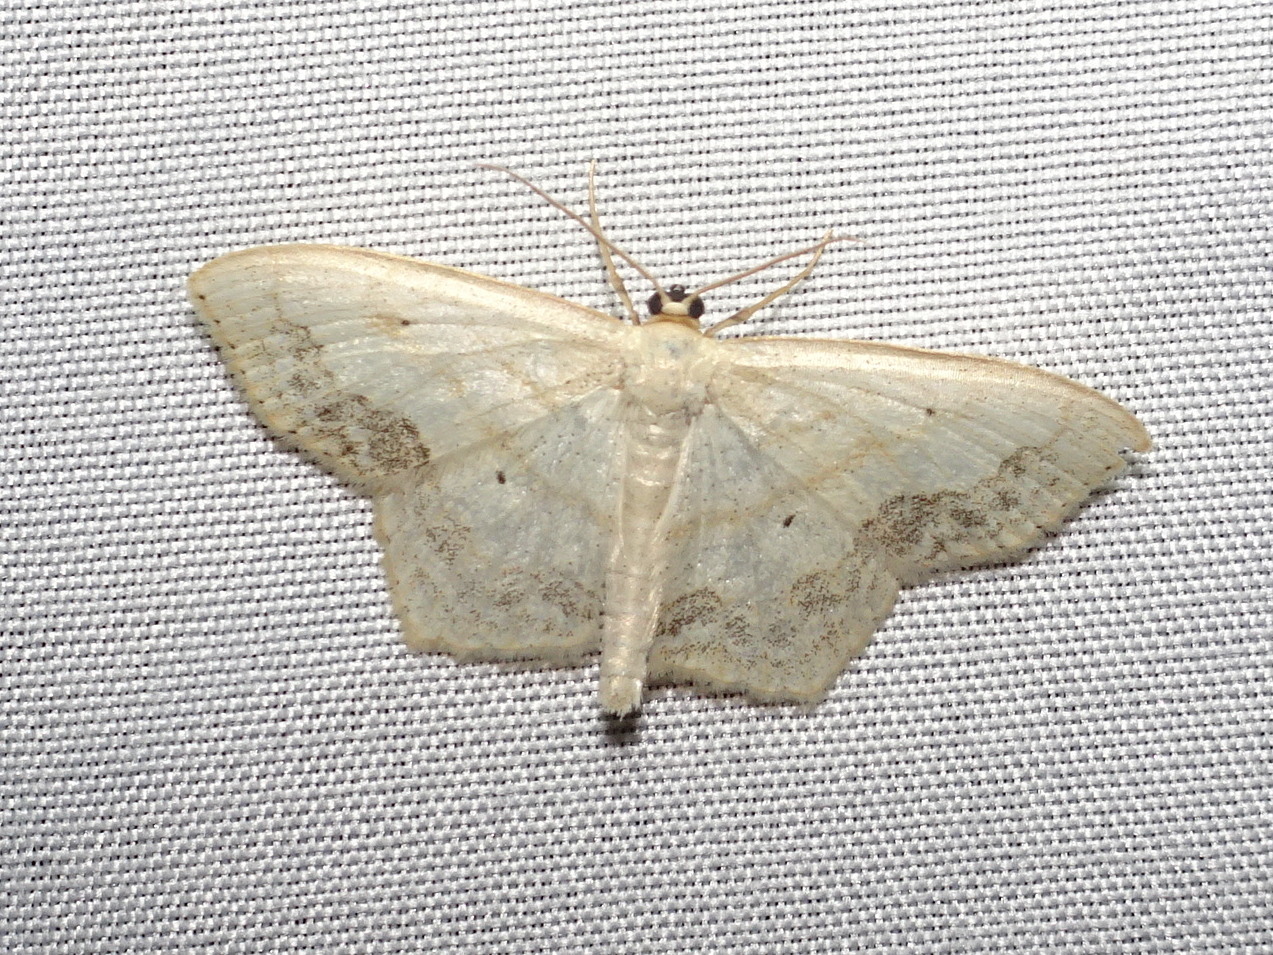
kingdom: Animalia
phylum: Arthropoda
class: Insecta
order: Lepidoptera
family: Geometridae
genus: Scopula
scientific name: Scopula limboundata
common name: Large lace border
